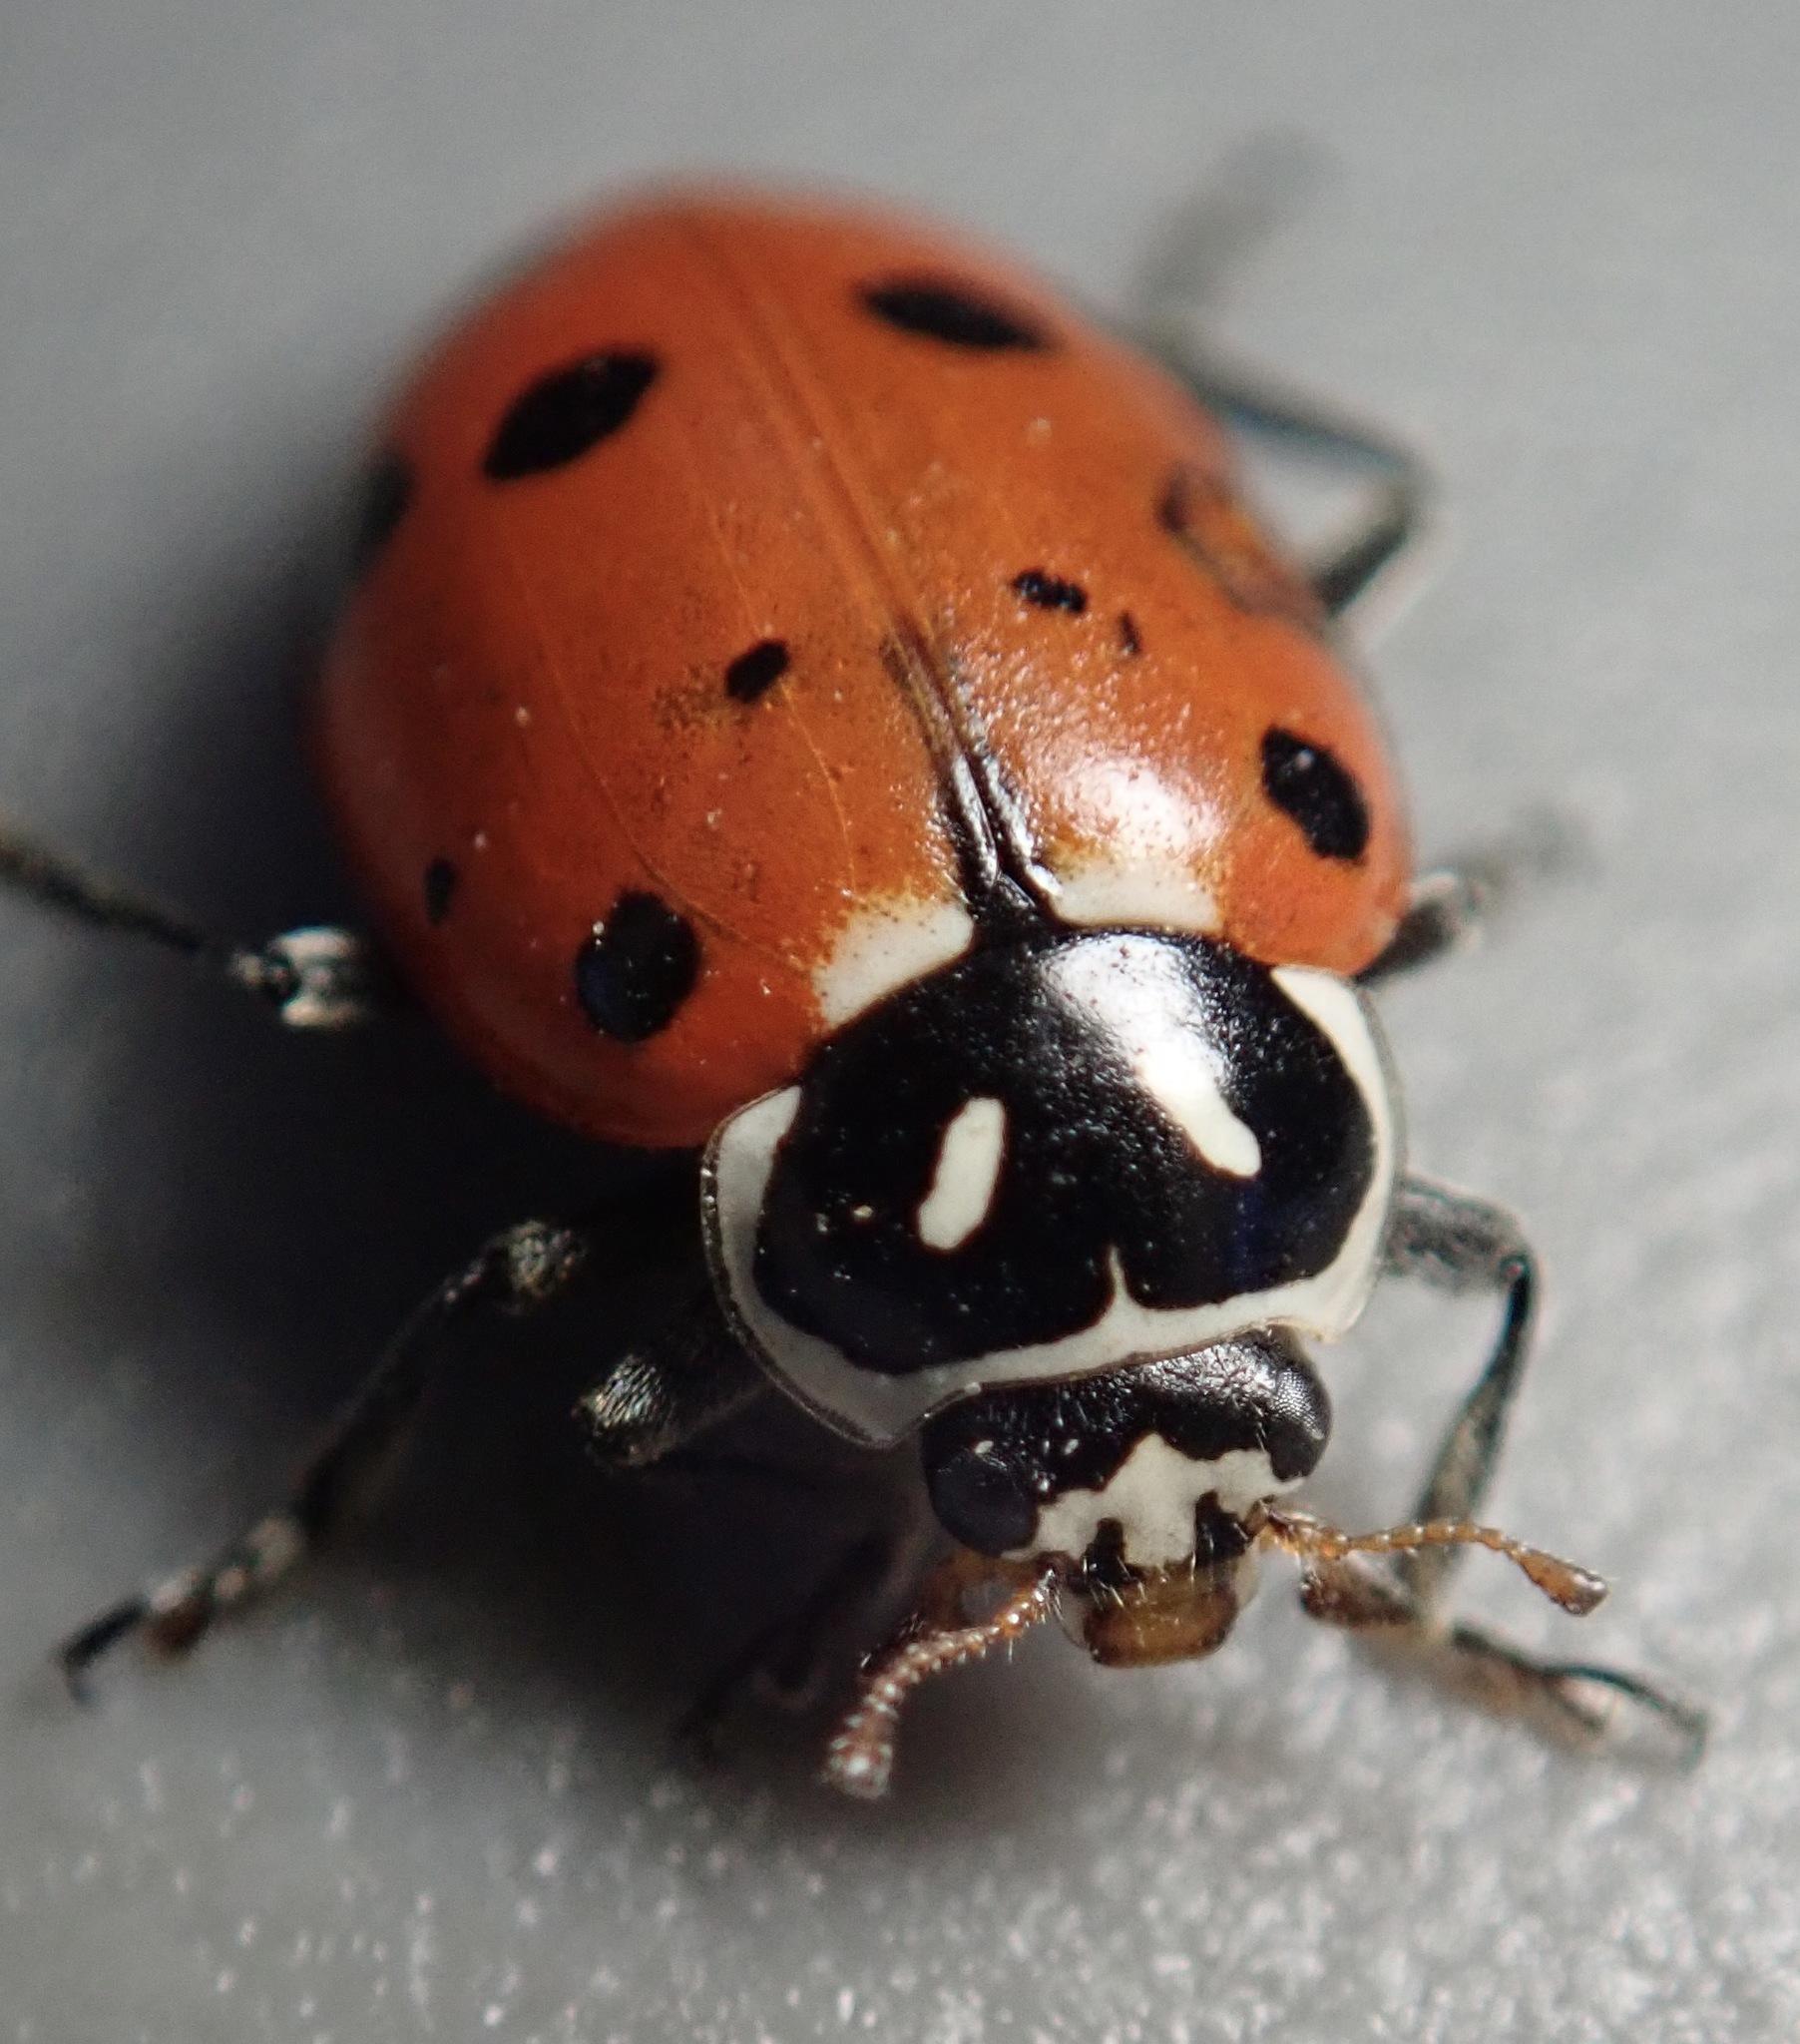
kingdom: Animalia
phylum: Arthropoda
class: Insecta
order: Coleoptera
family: Coccinellidae
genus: Hippodamia
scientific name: Hippodamia convergens
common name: Convergent lady beetle
